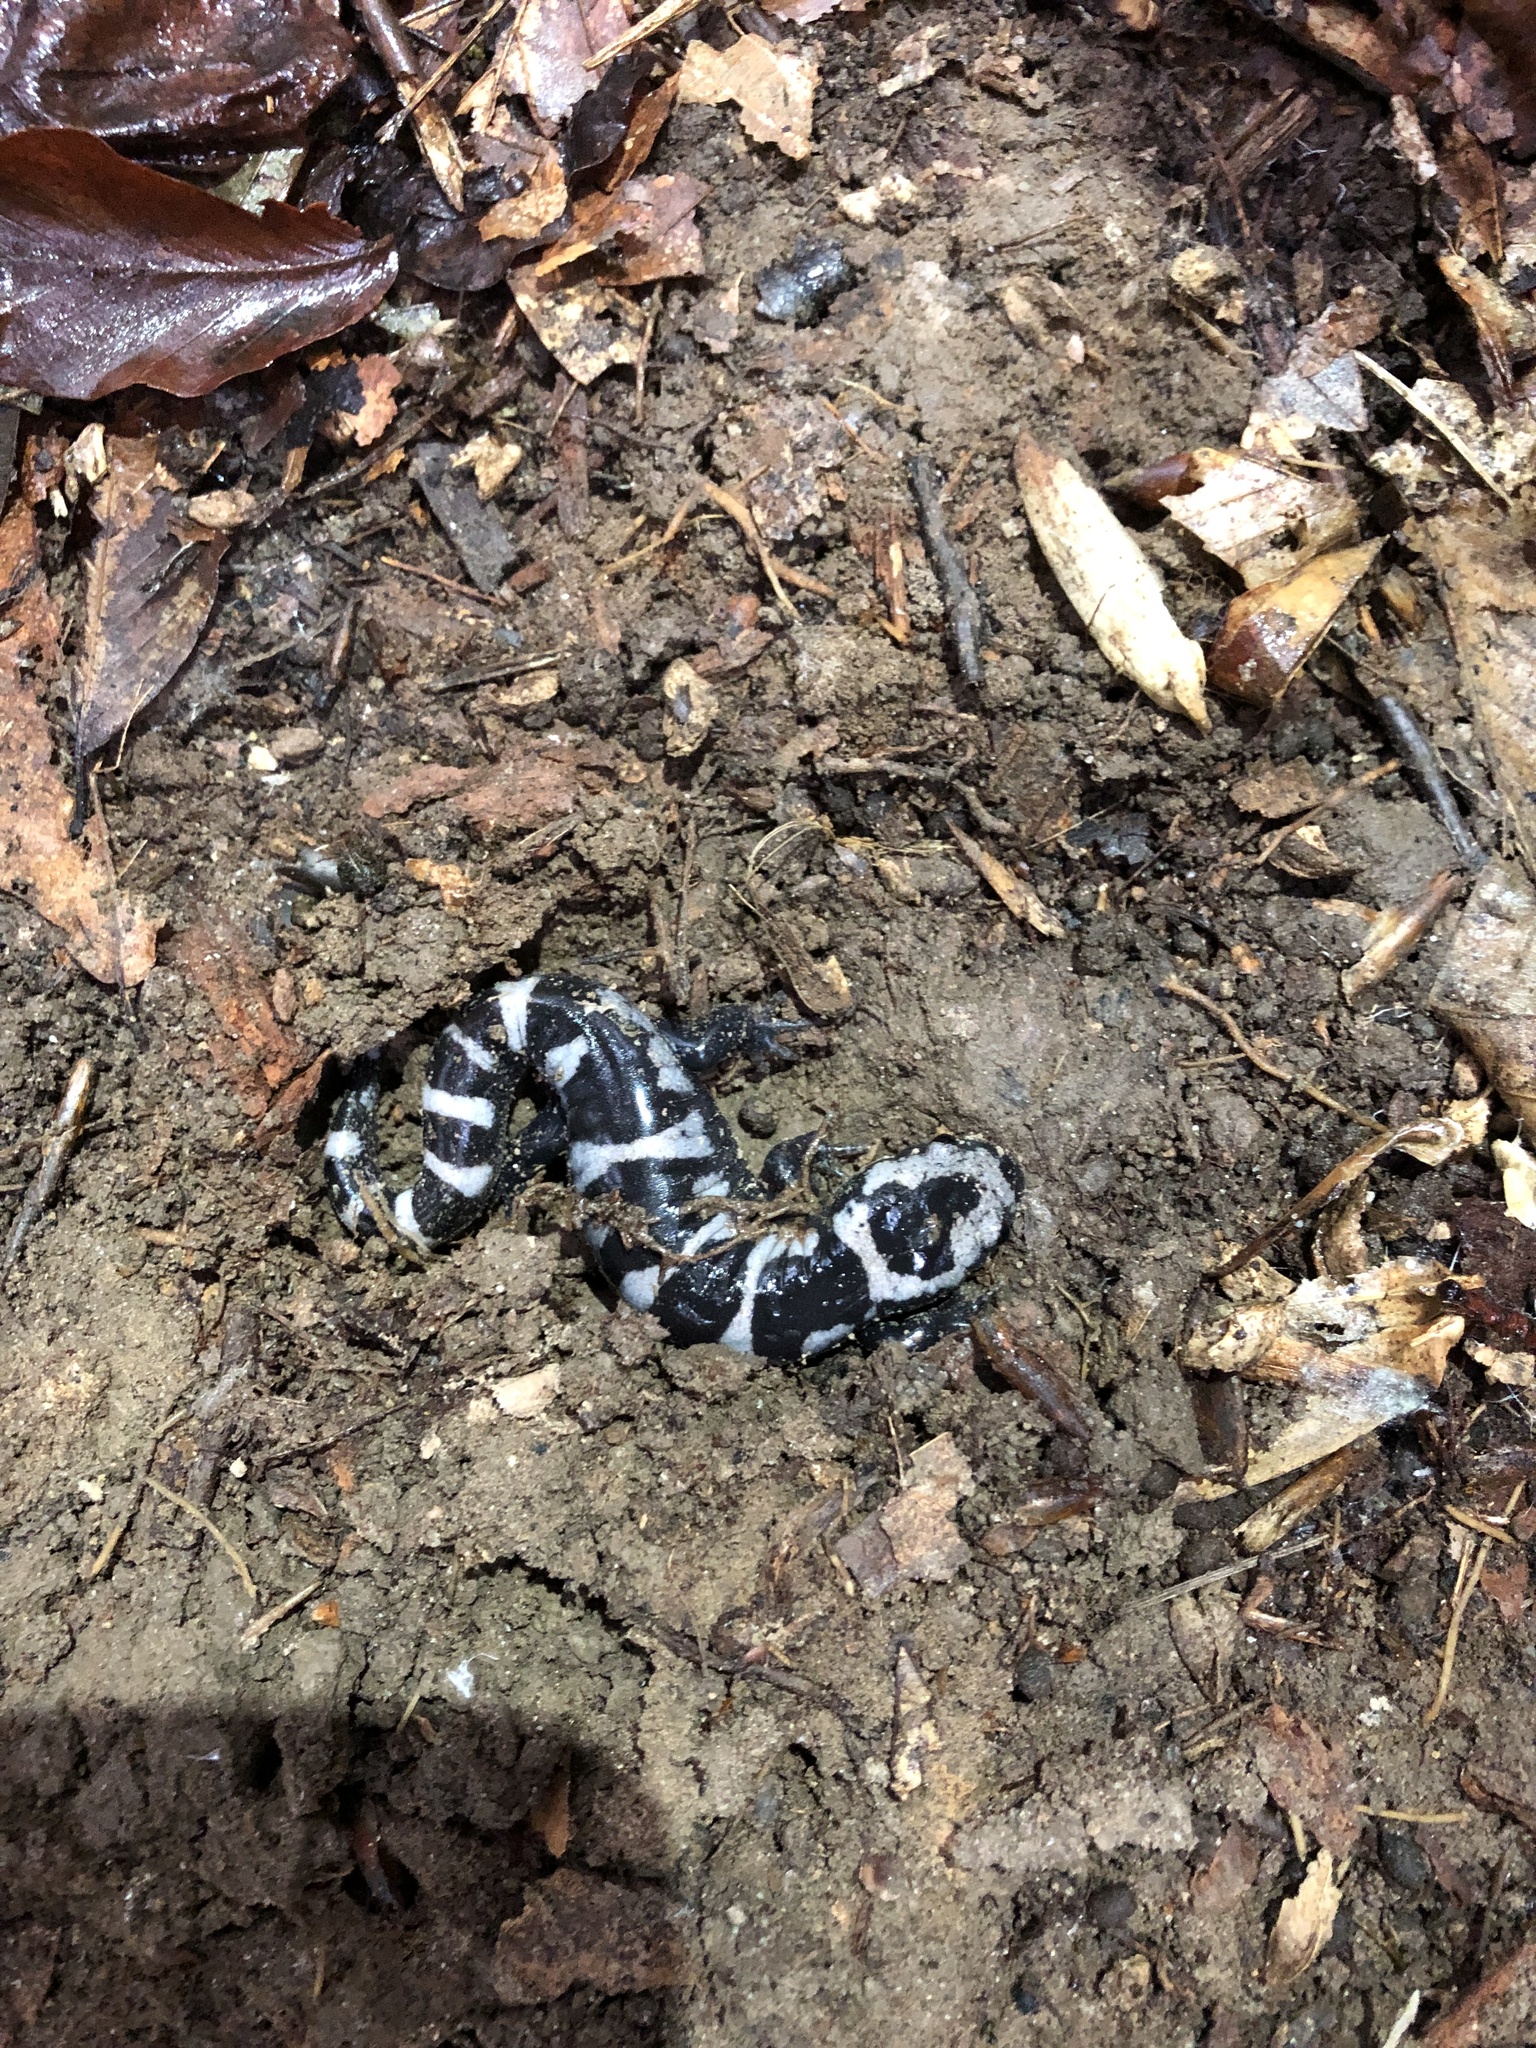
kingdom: Animalia
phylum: Chordata
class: Amphibia
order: Caudata
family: Ambystomatidae
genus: Ambystoma
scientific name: Ambystoma opacum
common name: Marbled salamander
